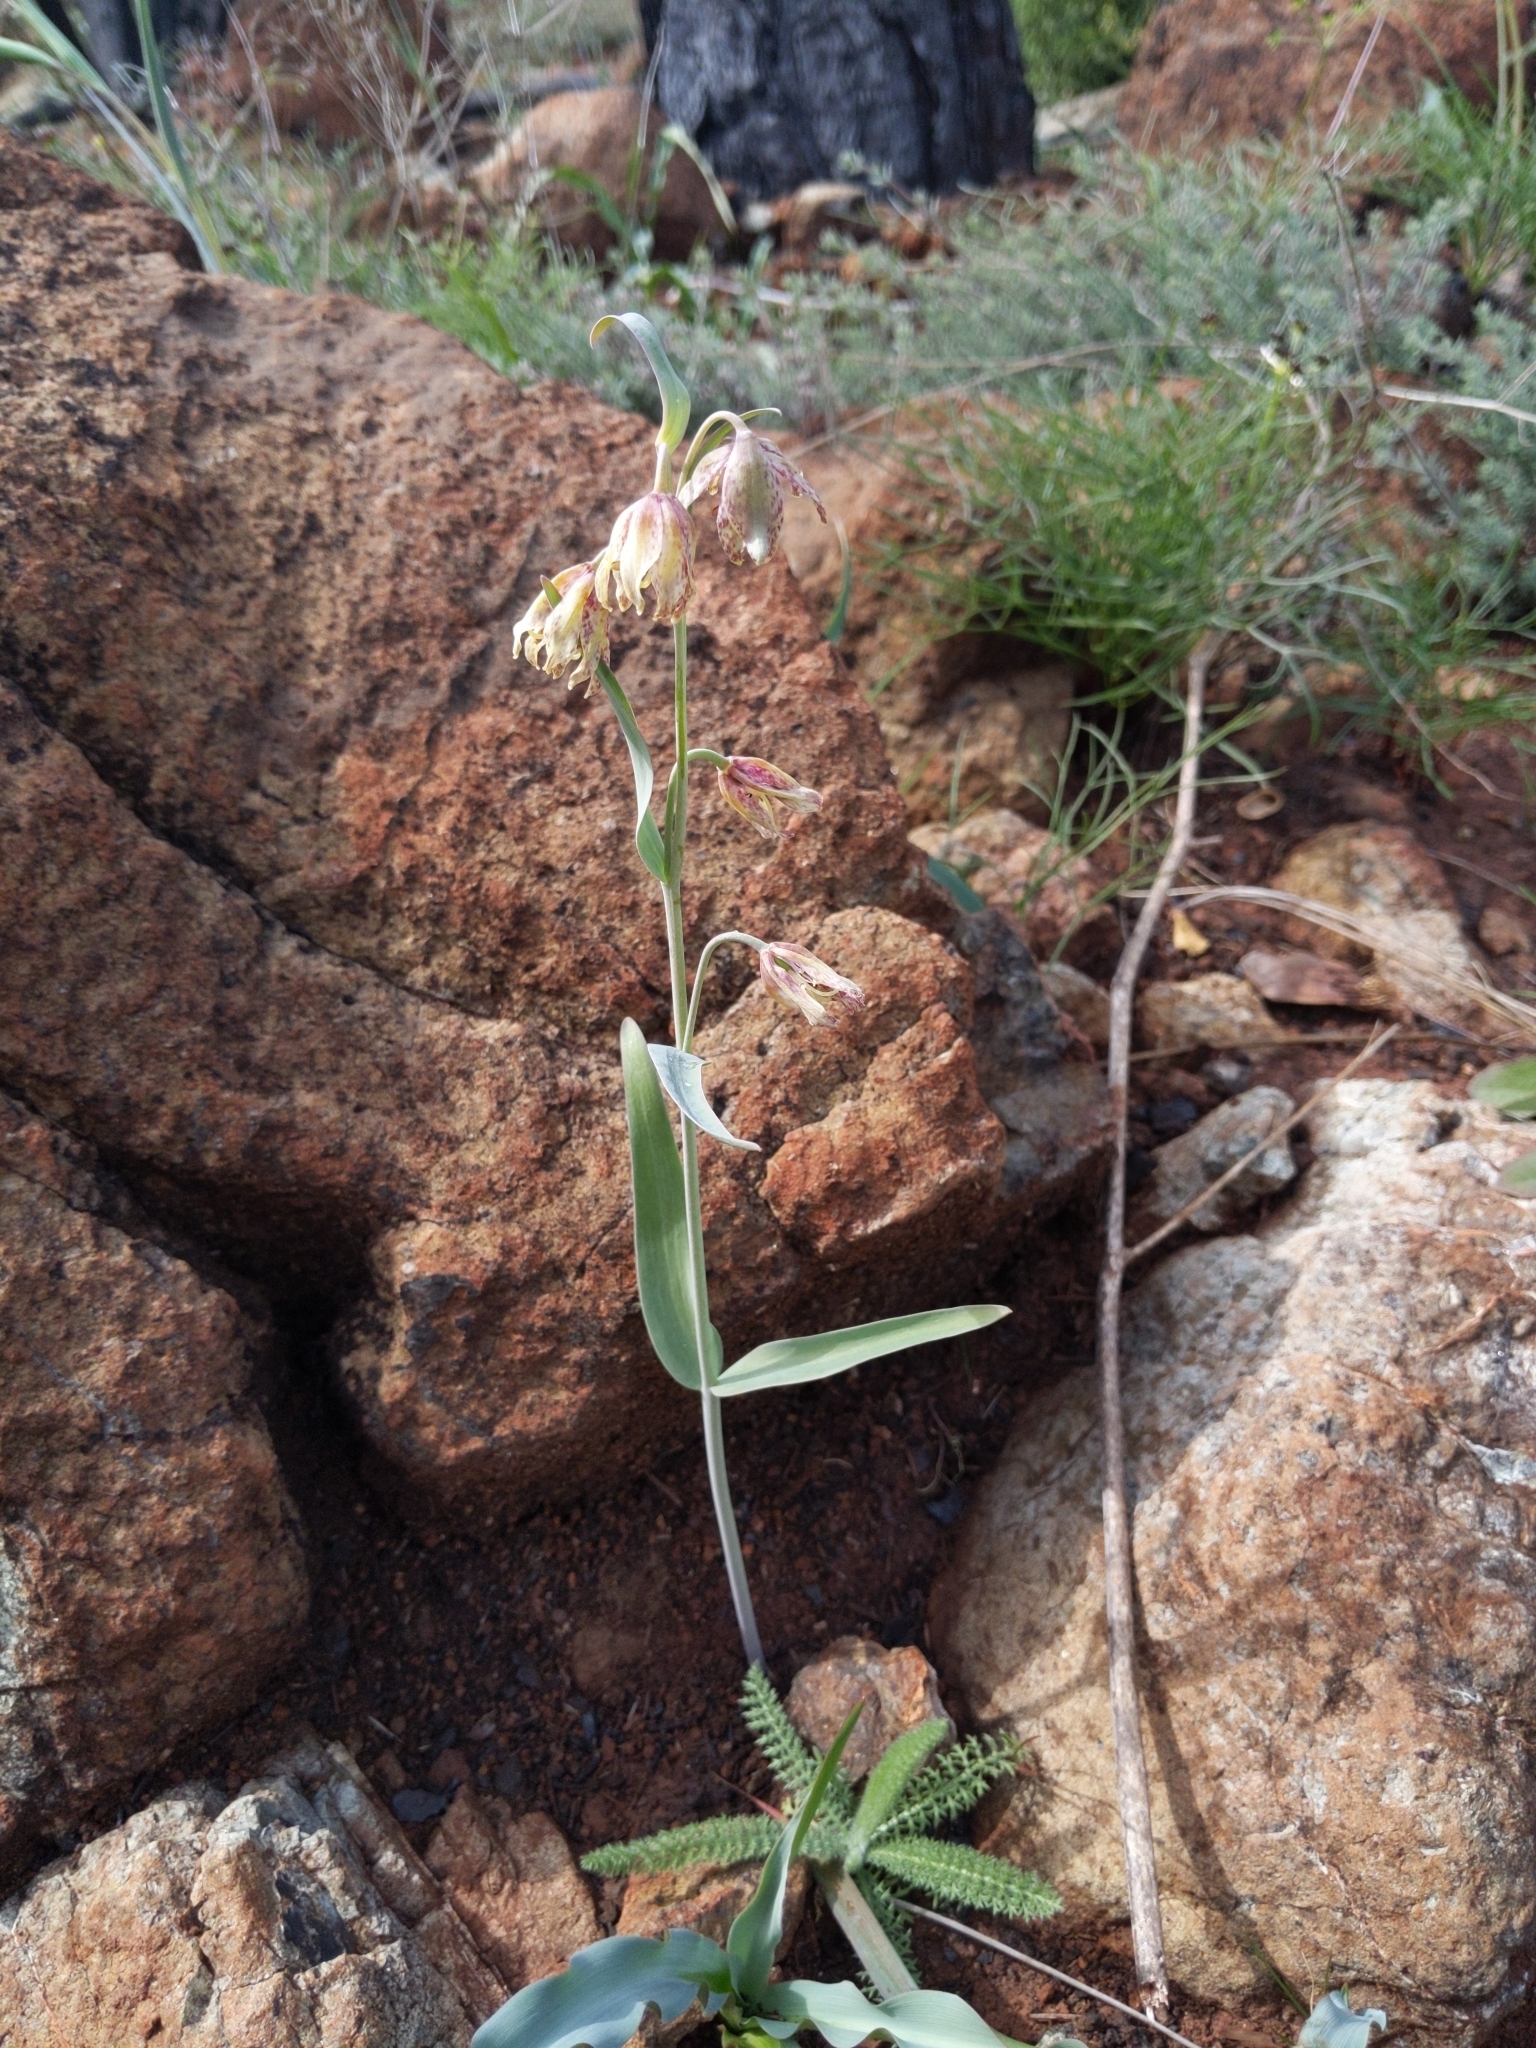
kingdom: Plantae
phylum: Tracheophyta
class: Liliopsida
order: Liliales
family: Liliaceae
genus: Fritillaria
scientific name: Fritillaria affinis
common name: Ojai fritillary
